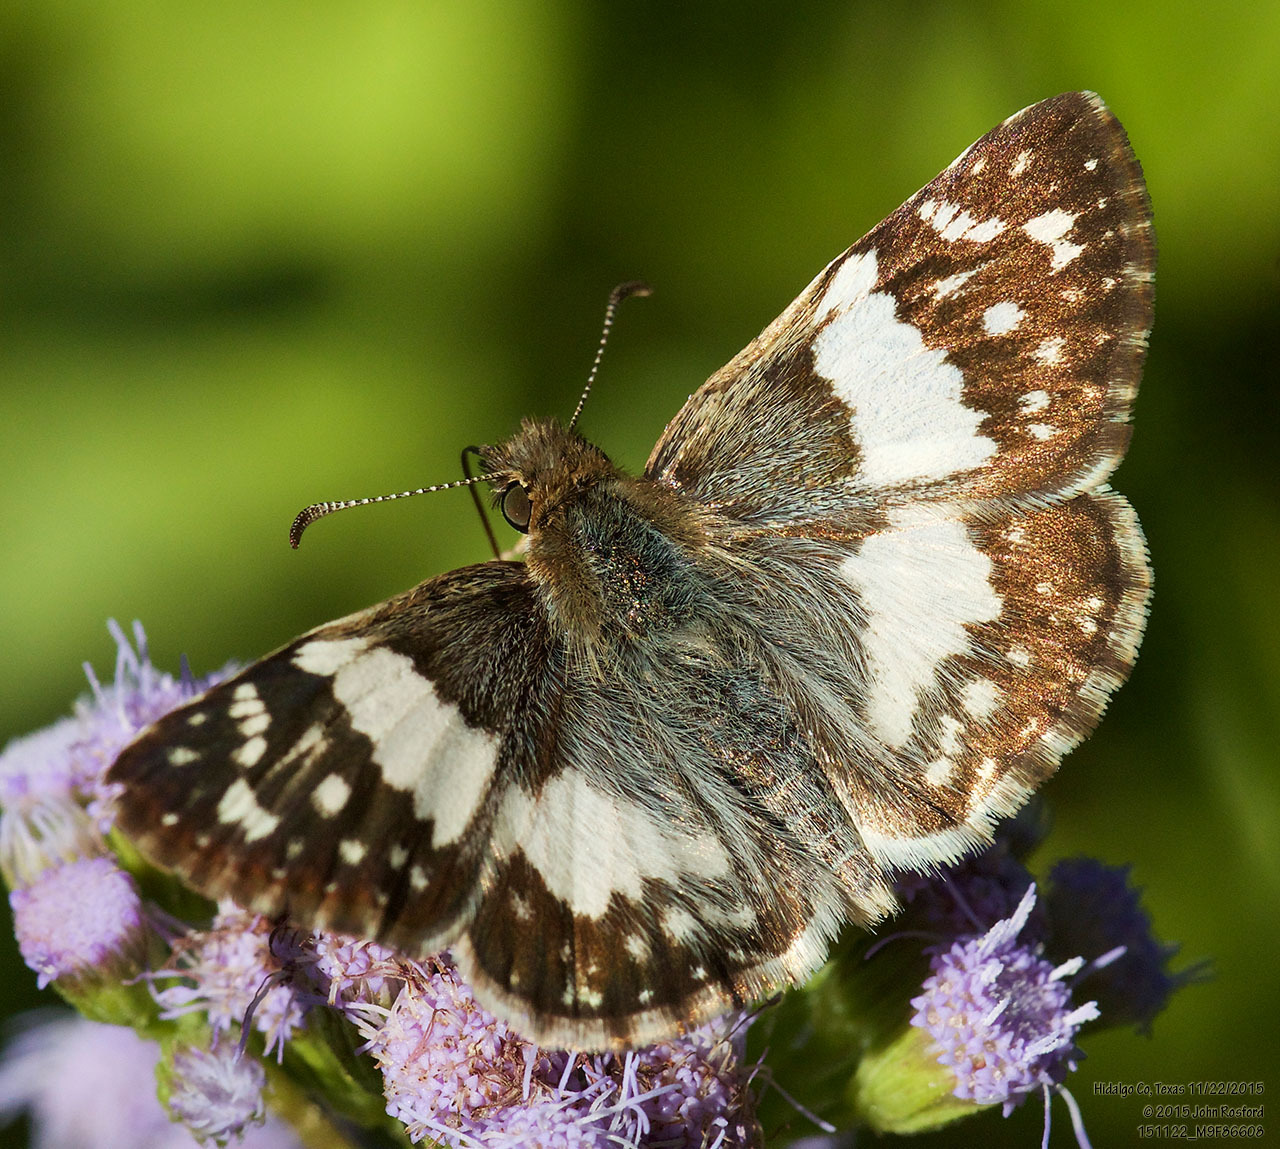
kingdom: Animalia
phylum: Arthropoda
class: Insecta
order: Lepidoptera
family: Hesperiidae
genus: Heliopyrgus
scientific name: Heliopyrgus domicella
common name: Erichson's white skipper
